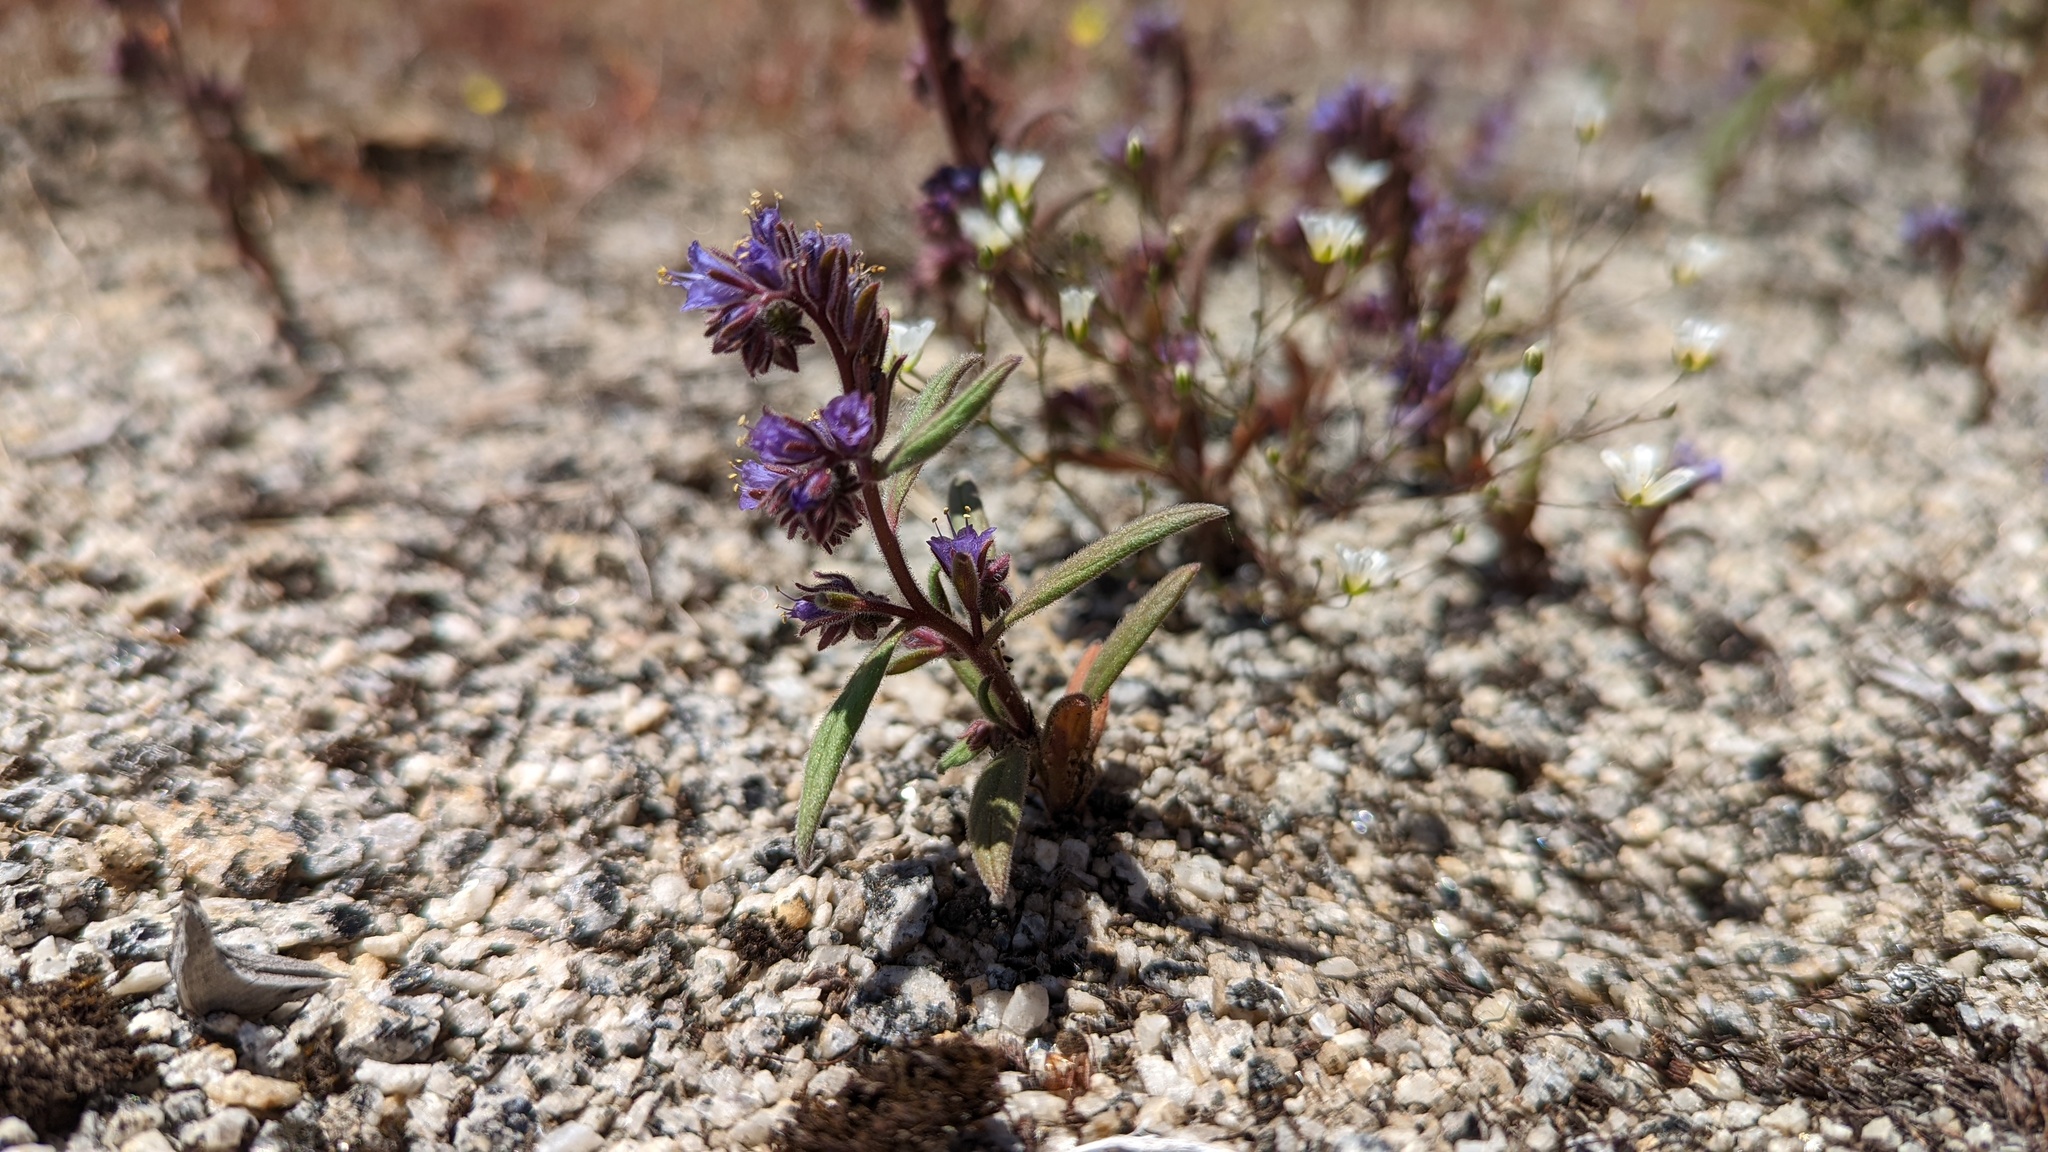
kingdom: Plantae
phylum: Tracheophyta
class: Magnoliopsida
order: Boraginales
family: Hydrophyllaceae
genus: Phacelia
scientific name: Phacelia quickii
